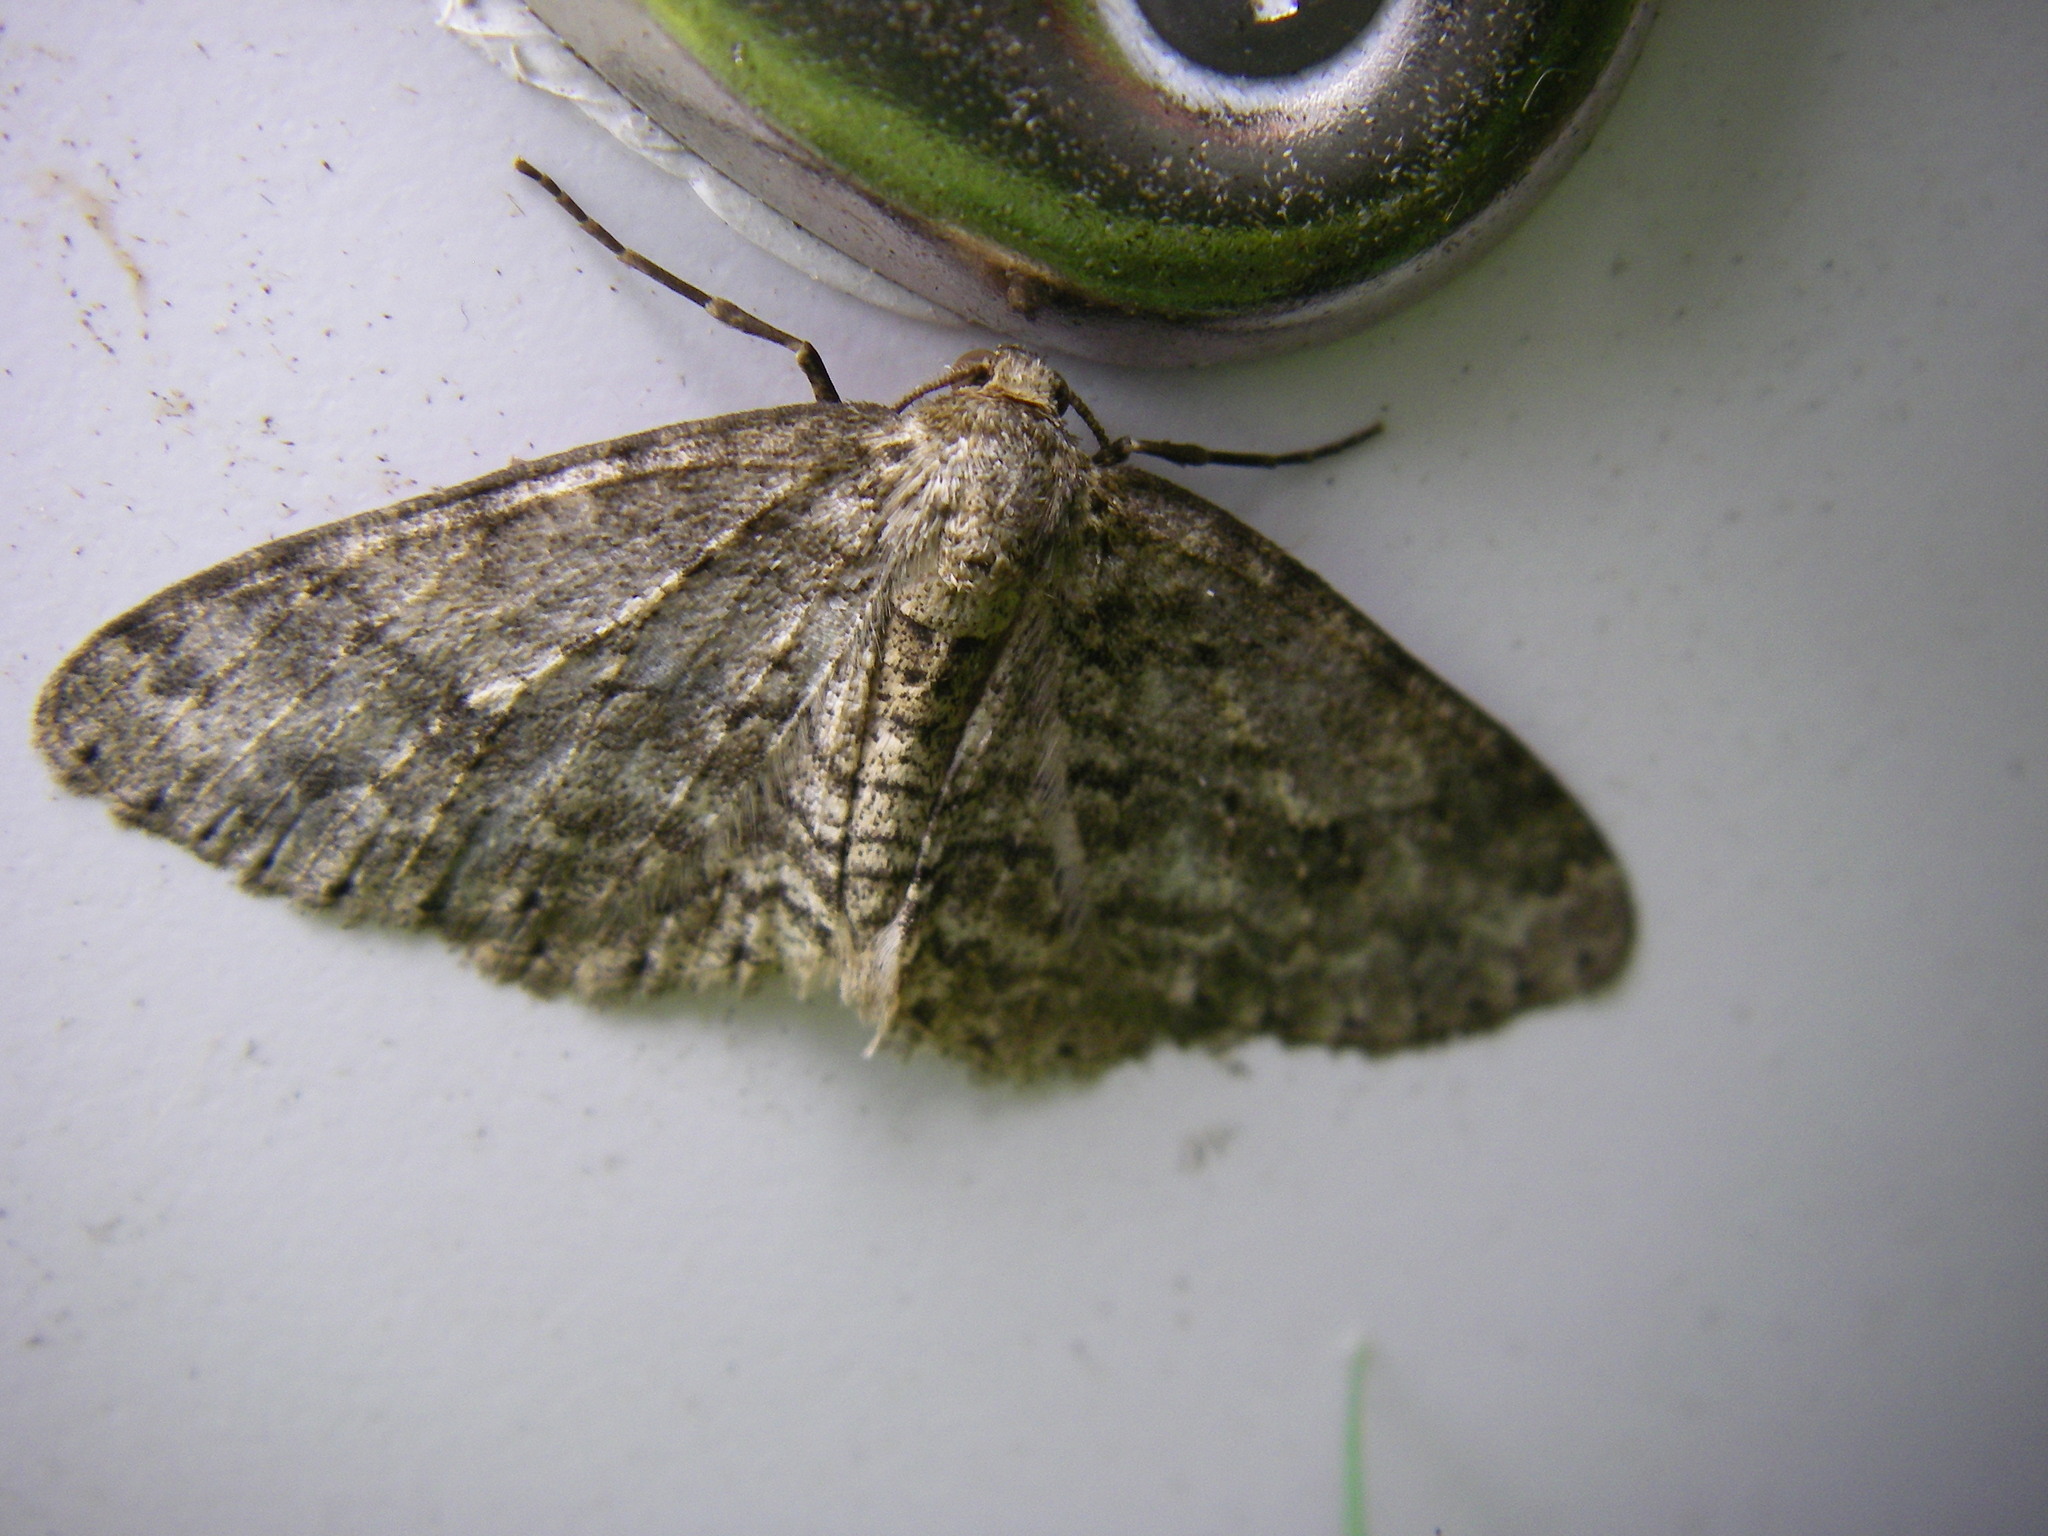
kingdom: Animalia
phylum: Arthropoda
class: Insecta
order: Lepidoptera
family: Geometridae
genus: Ectropis
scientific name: Ectropis crepuscularia
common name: Engrailed
